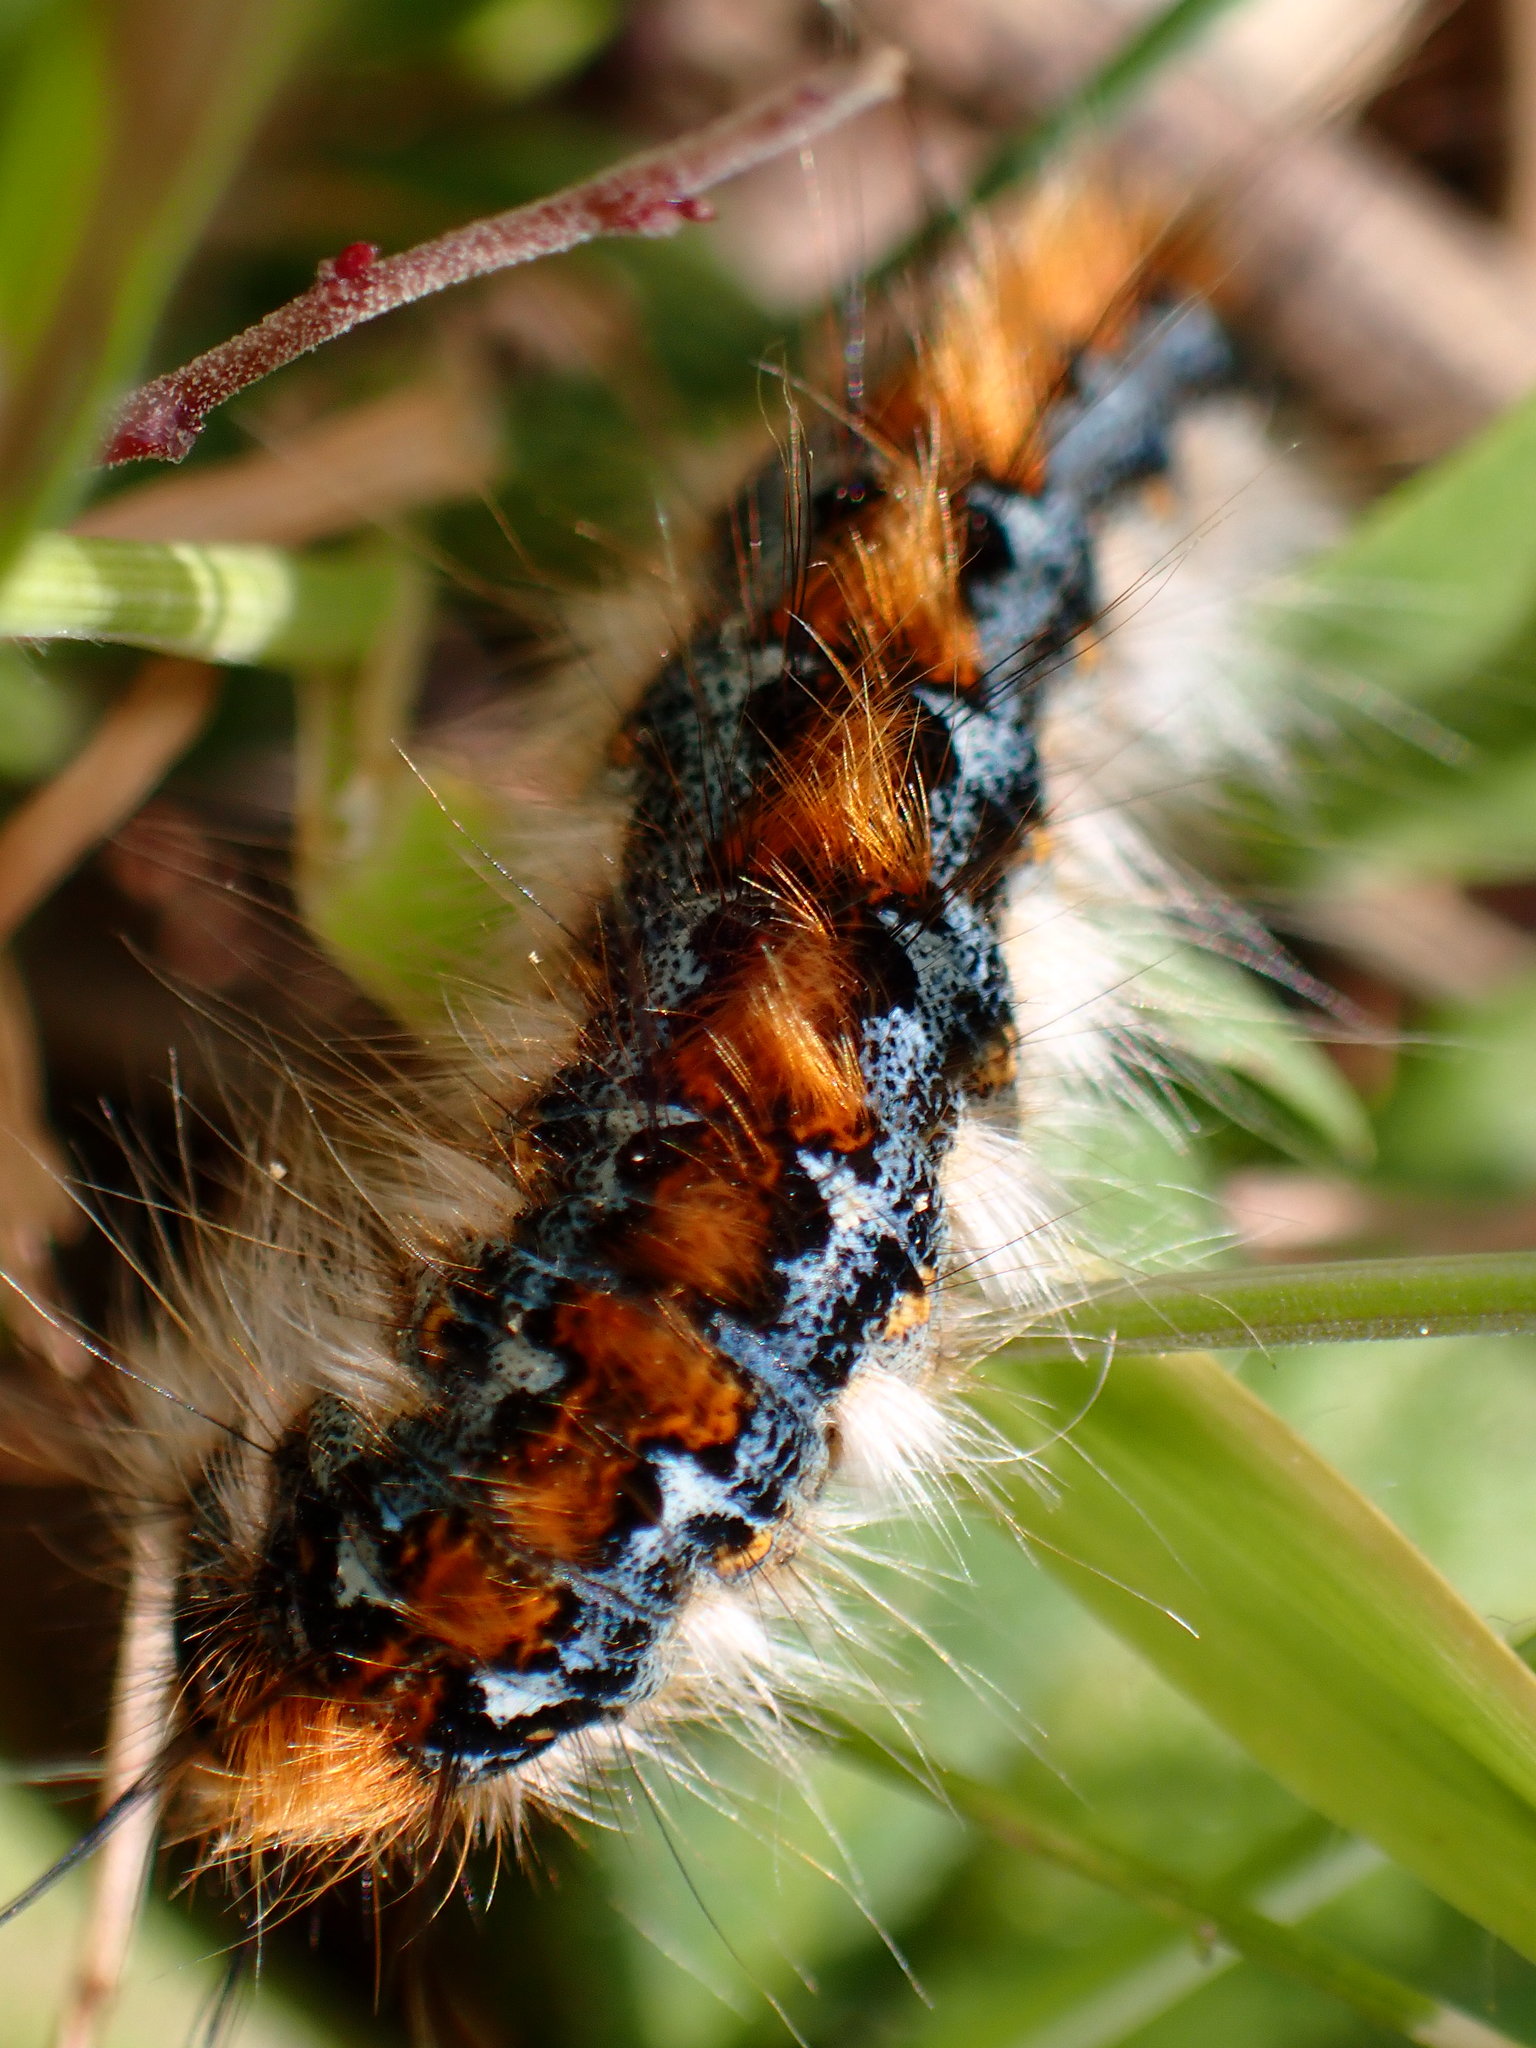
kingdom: Animalia
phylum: Arthropoda
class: Insecta
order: Lepidoptera
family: Lasiocampidae
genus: Malacosoma
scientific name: Malacosoma constricta
